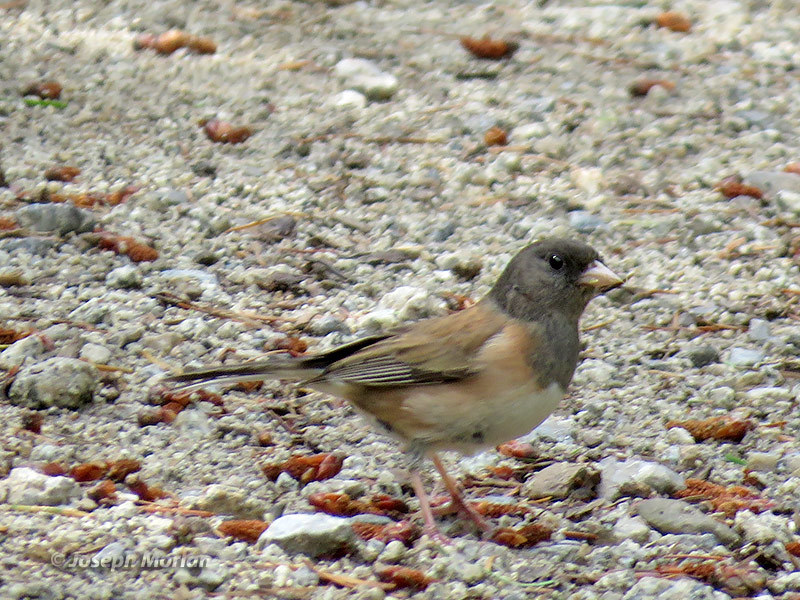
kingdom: Animalia
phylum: Chordata
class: Aves
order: Passeriformes
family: Passerellidae
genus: Junco
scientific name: Junco hyemalis
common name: Dark-eyed junco
